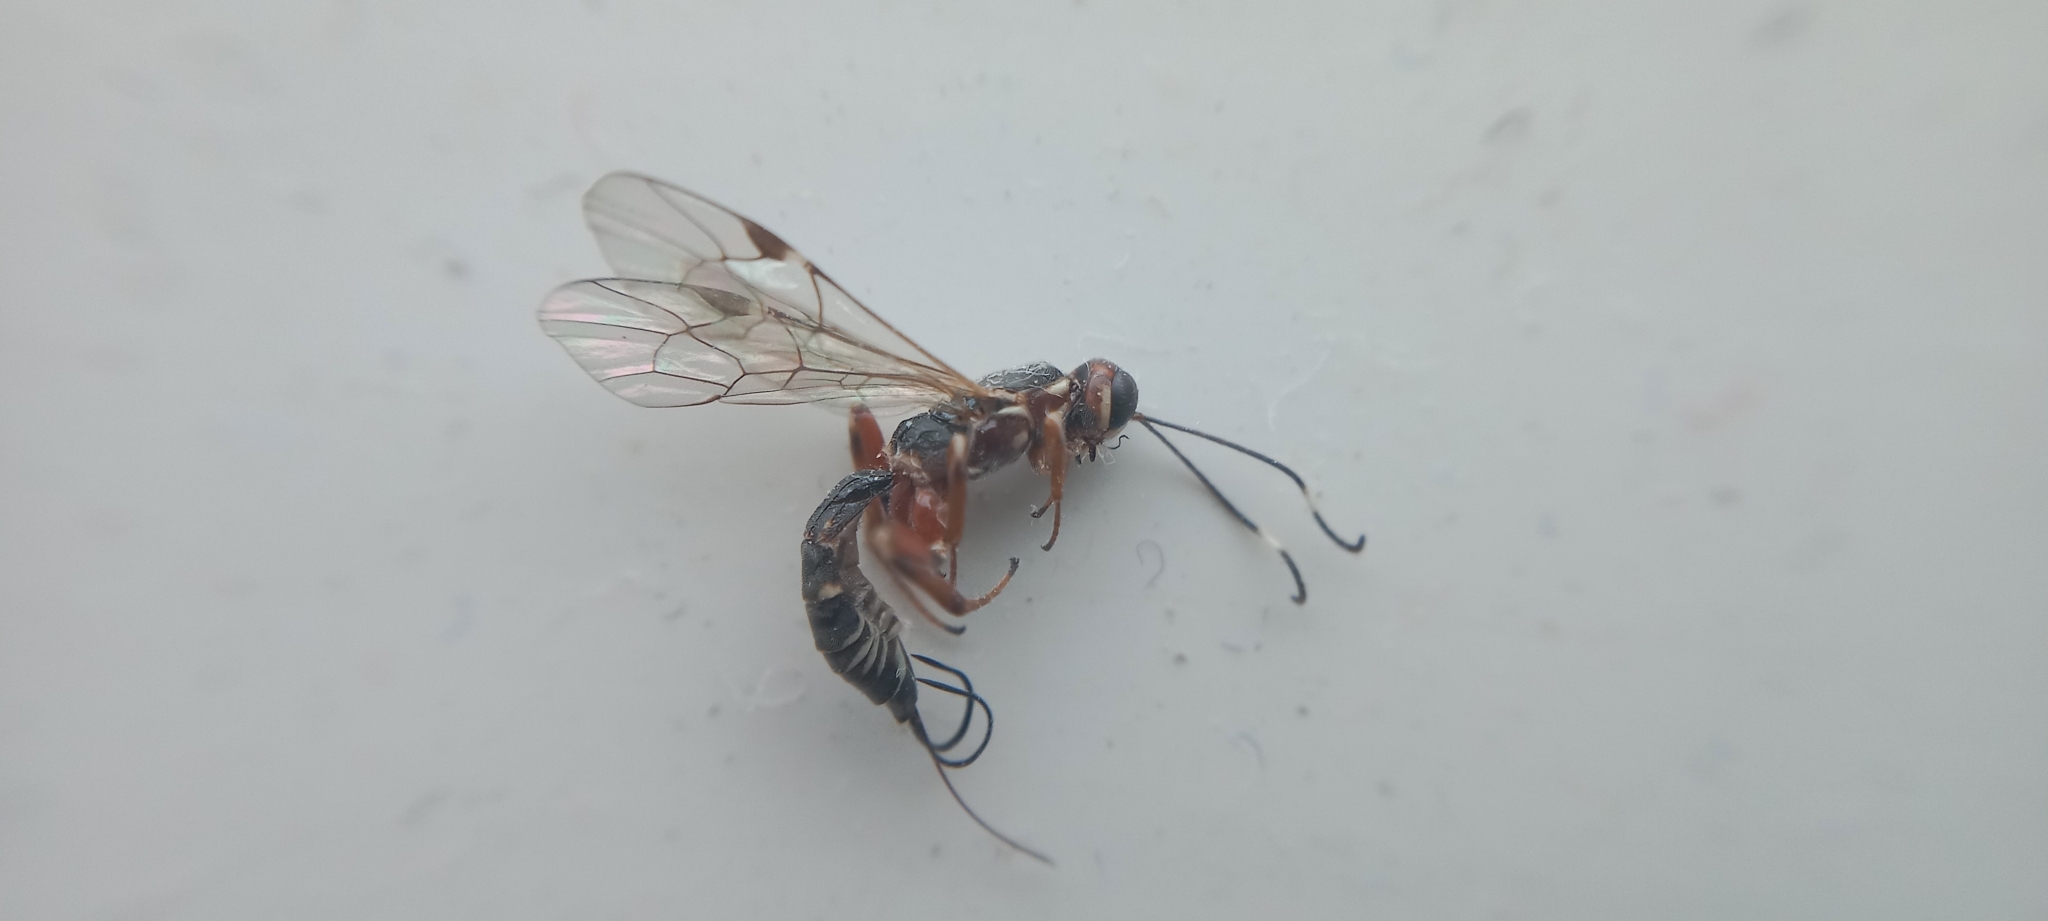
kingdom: Animalia
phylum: Arthropoda
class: Insecta
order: Hymenoptera
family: Ichneumonidae
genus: Xorides
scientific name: Xorides praecatorius
